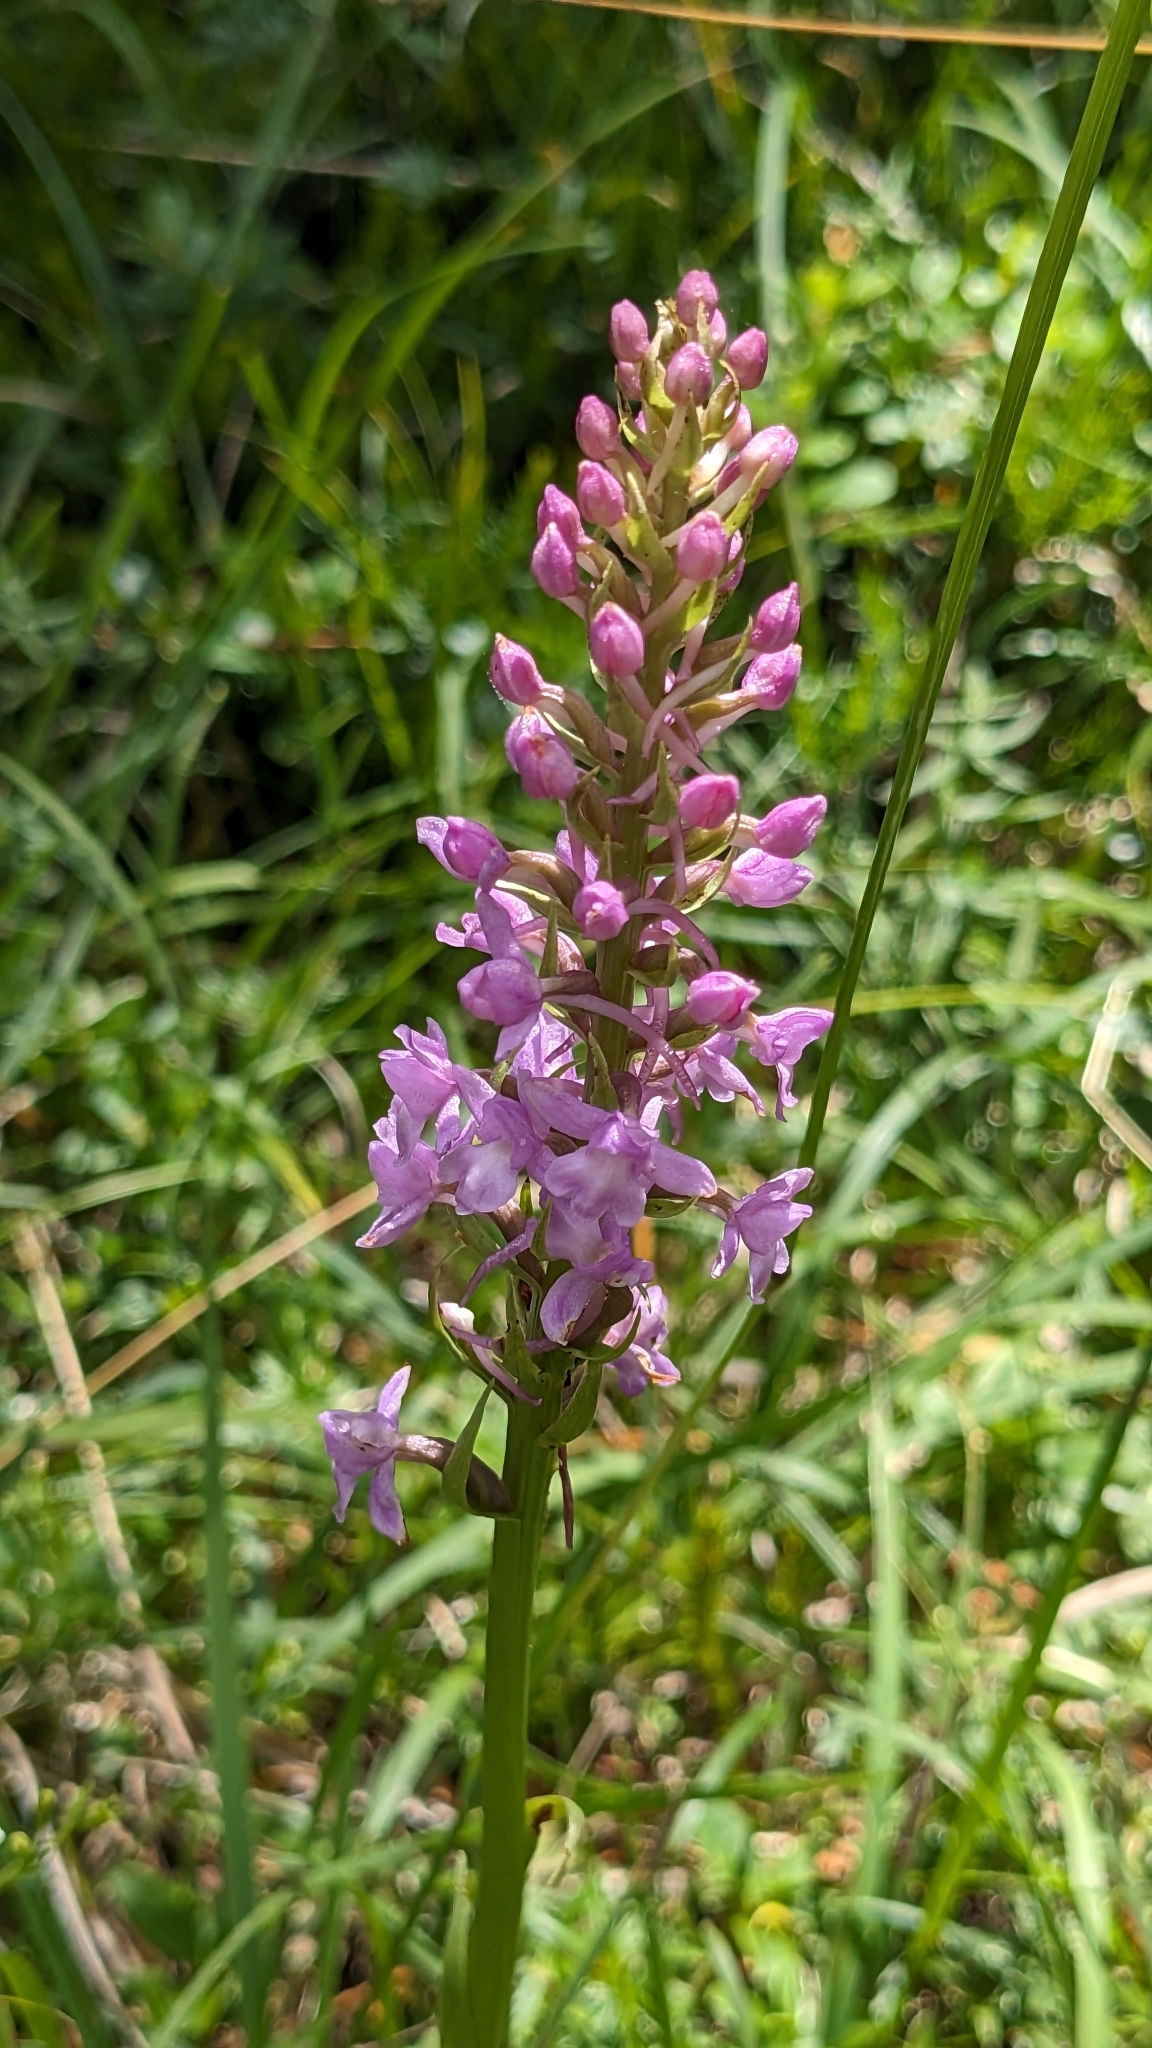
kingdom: Plantae
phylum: Tracheophyta
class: Liliopsida
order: Asparagales
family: Orchidaceae
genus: Gymnadenia
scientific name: Gymnadenia conopsea
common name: Fragrant orchid
